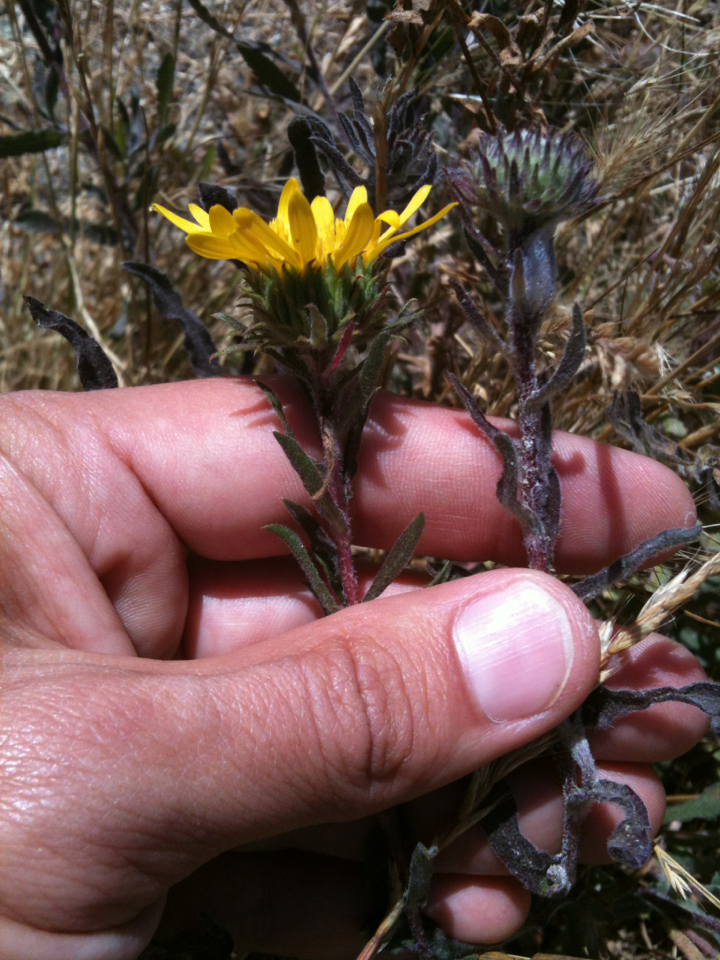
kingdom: Plantae
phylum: Tracheophyta
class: Magnoliopsida
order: Asterales
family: Asteraceae
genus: Grindelia
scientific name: Grindelia hirsutula
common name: Hairy gumweed
